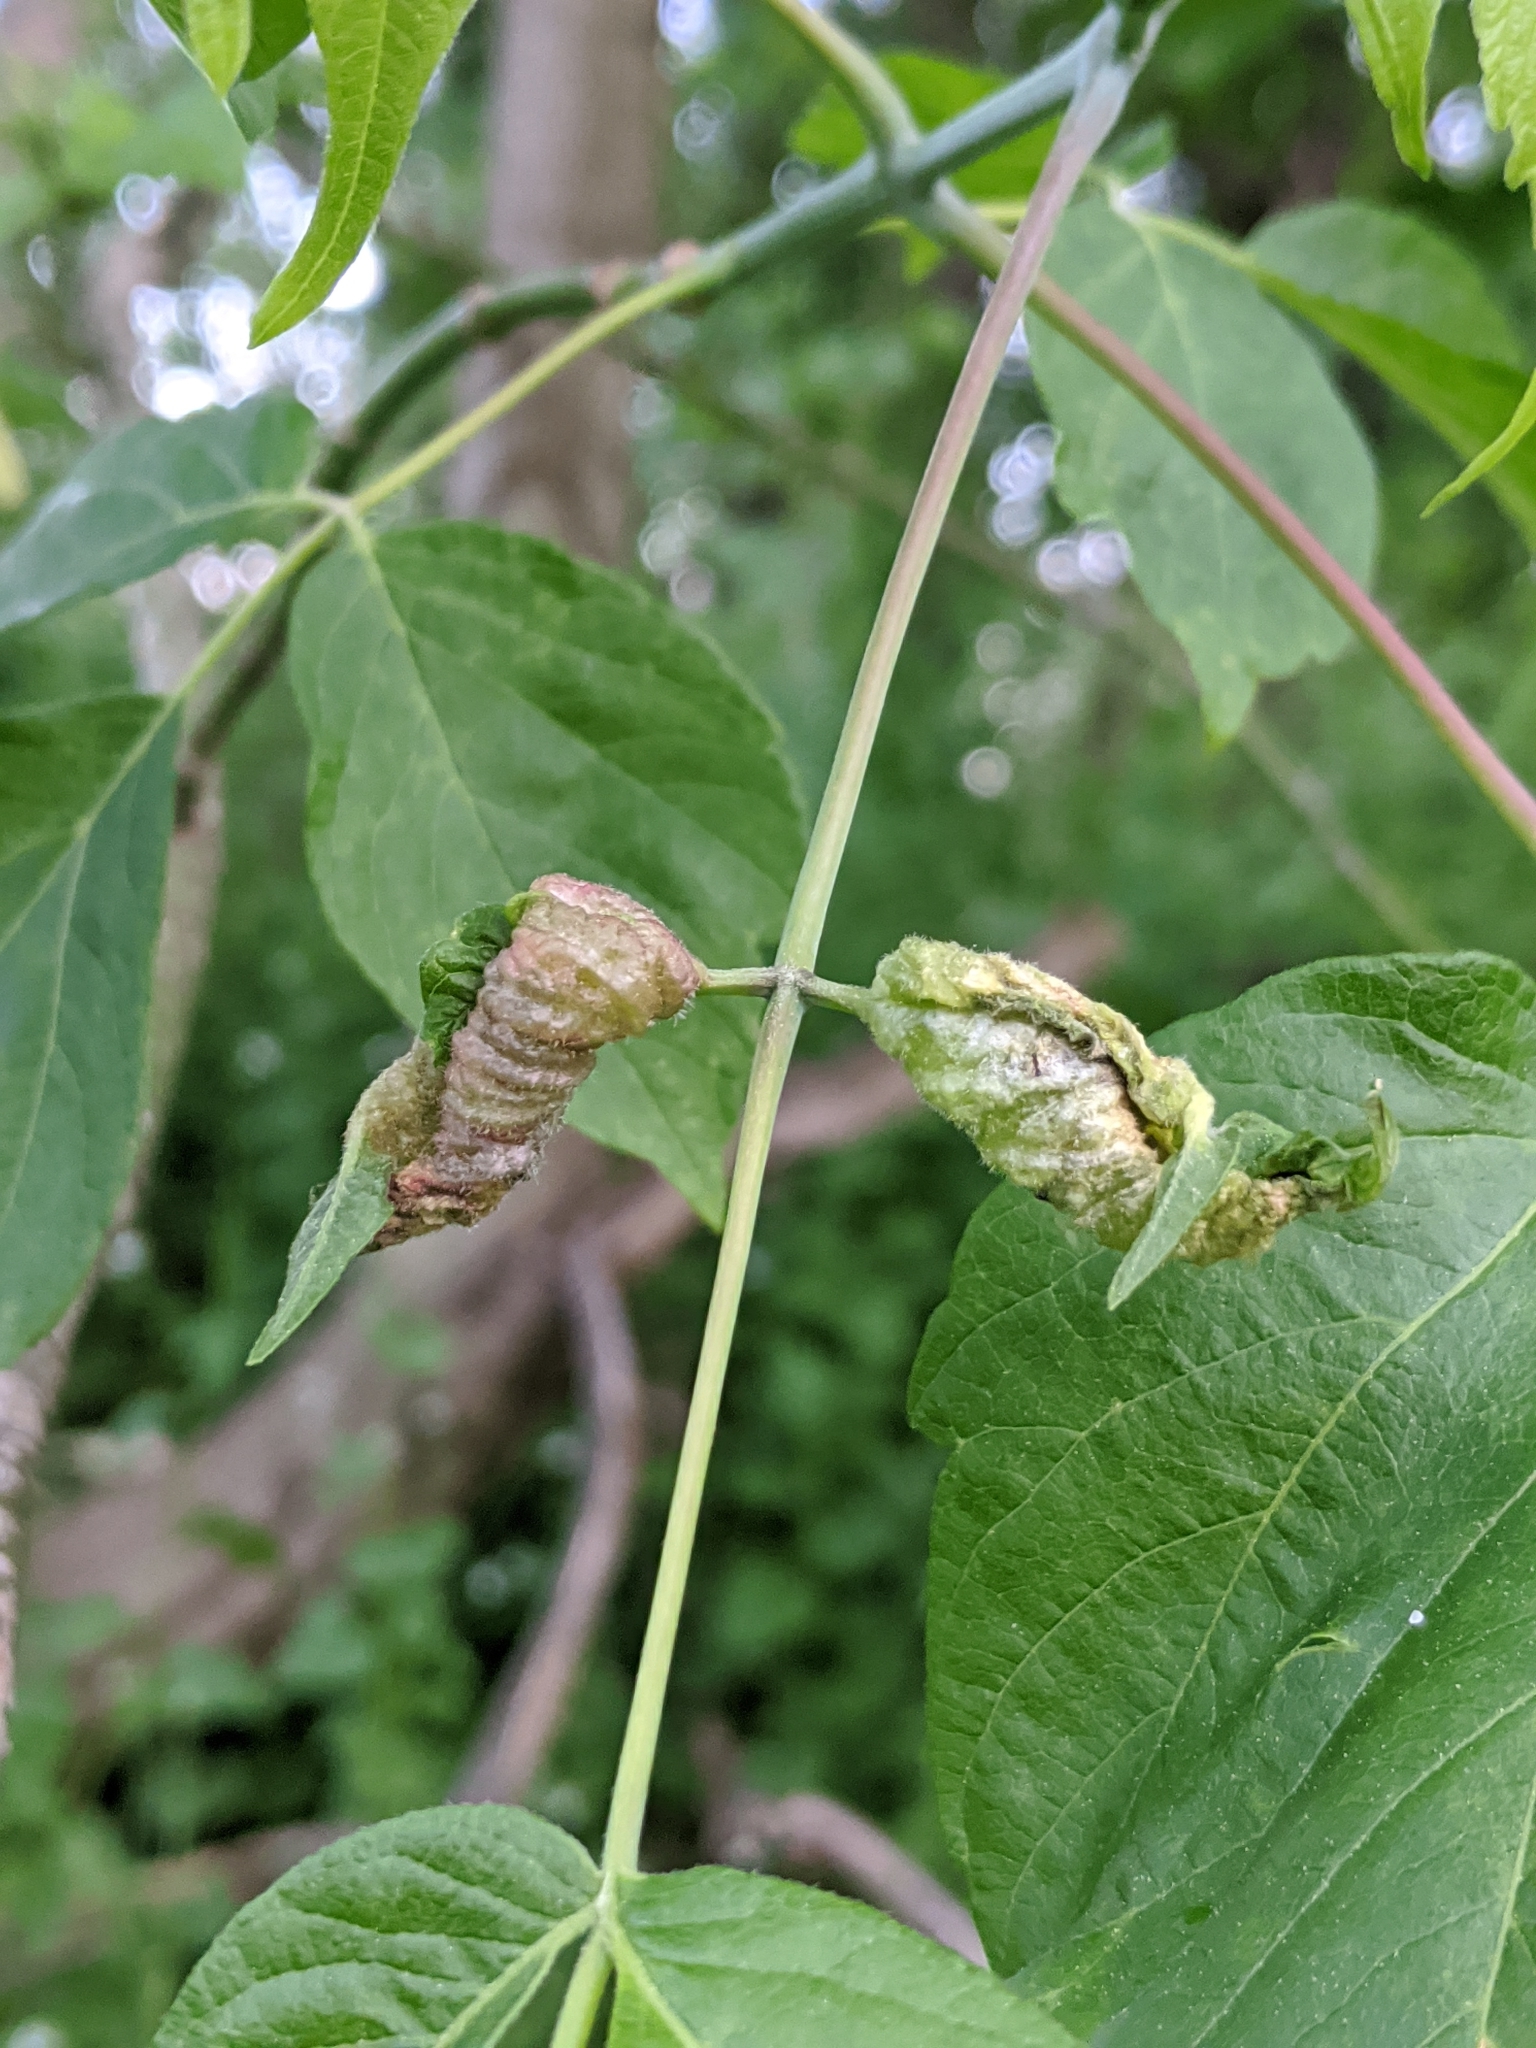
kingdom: Animalia
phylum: Arthropoda
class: Insecta
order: Diptera
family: Cecidomyiidae
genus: Contarinia
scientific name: Contarinia negundinis
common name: Boxelder budgall midge
